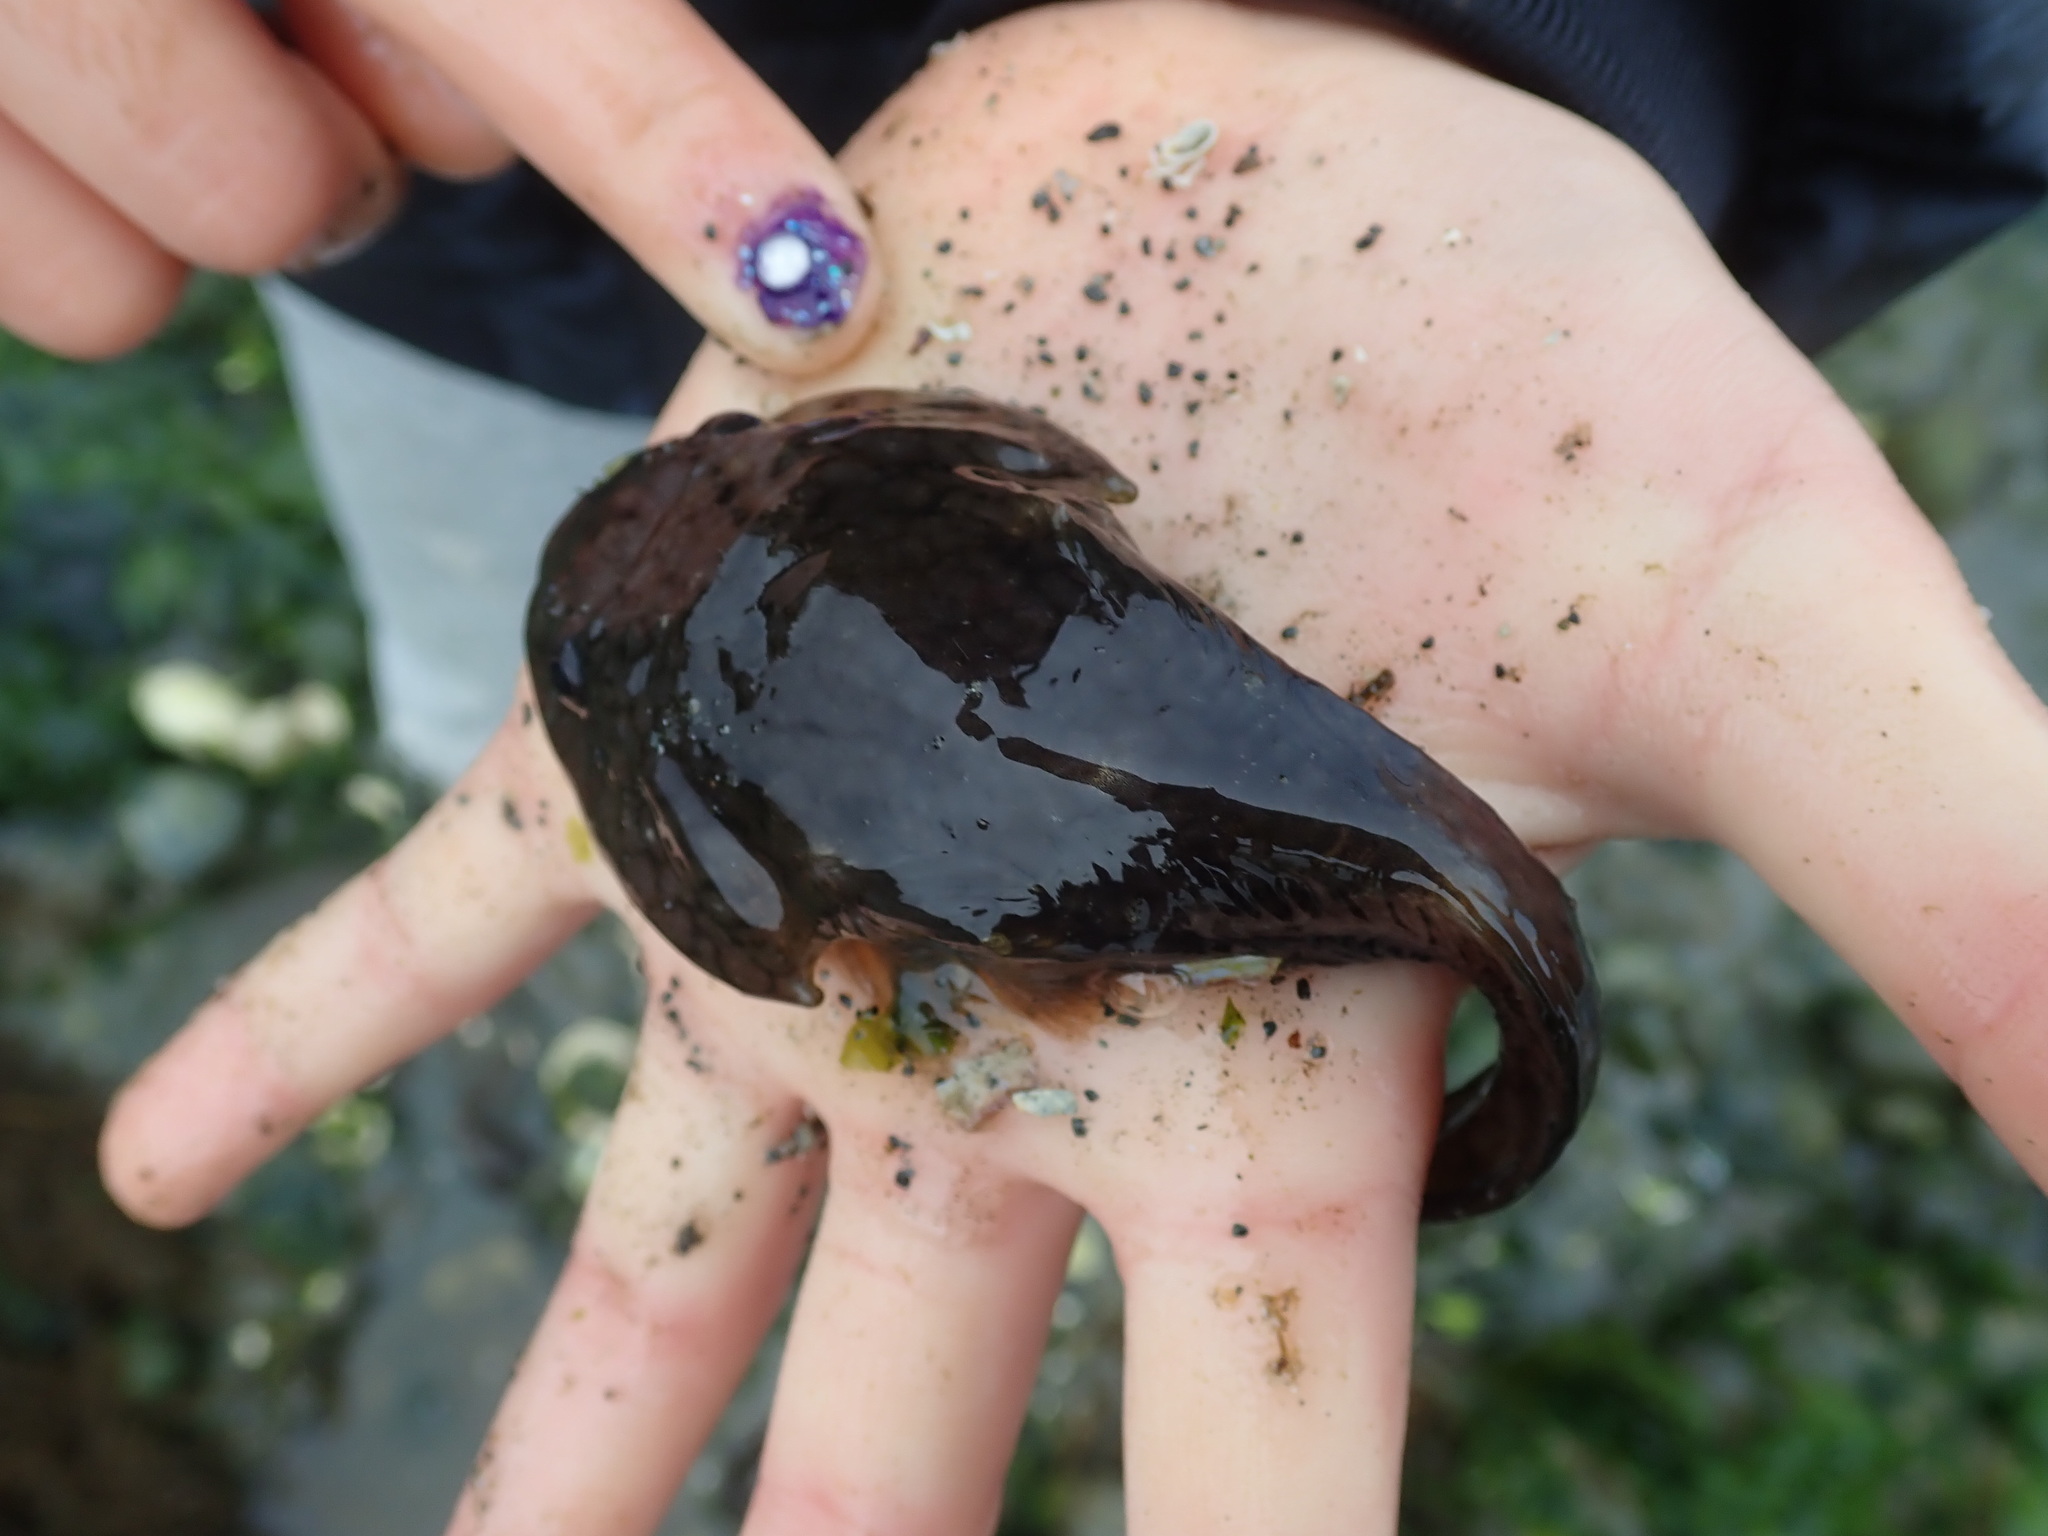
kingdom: Animalia
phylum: Chordata
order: Gobiesociformes
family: Gobiesocidae
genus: Gobiesox
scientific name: Gobiesox maeandricus
